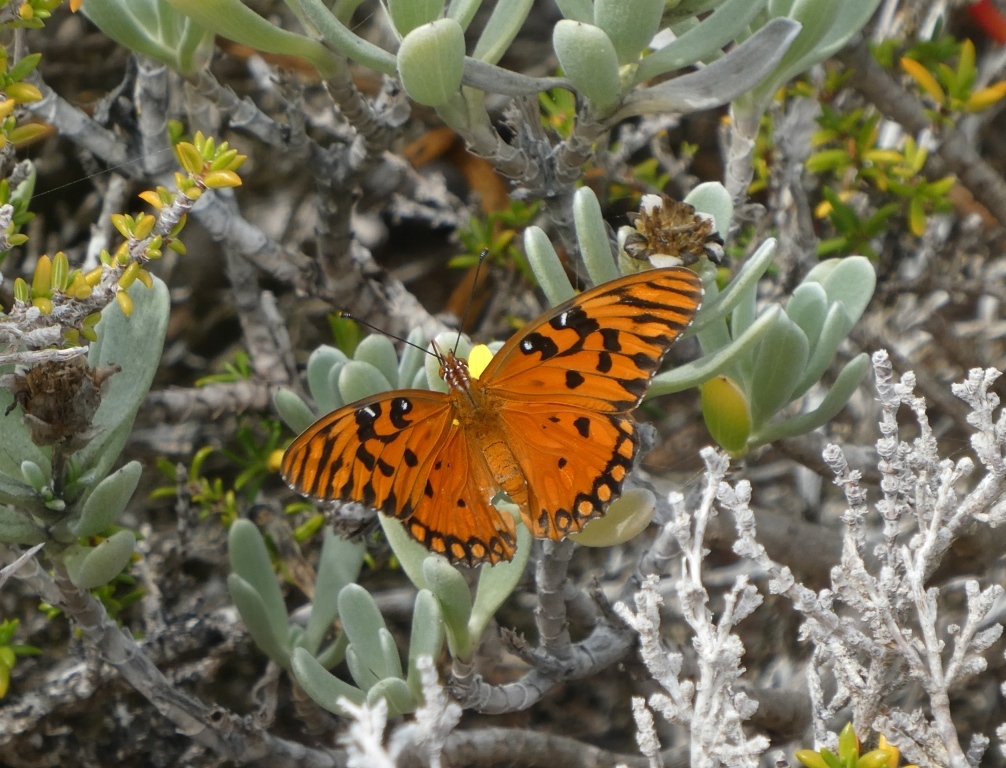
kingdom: Animalia
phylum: Arthropoda
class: Insecta
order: Lepidoptera
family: Nymphalidae
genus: Dione
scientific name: Dione vanillae
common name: Gulf fritillary
